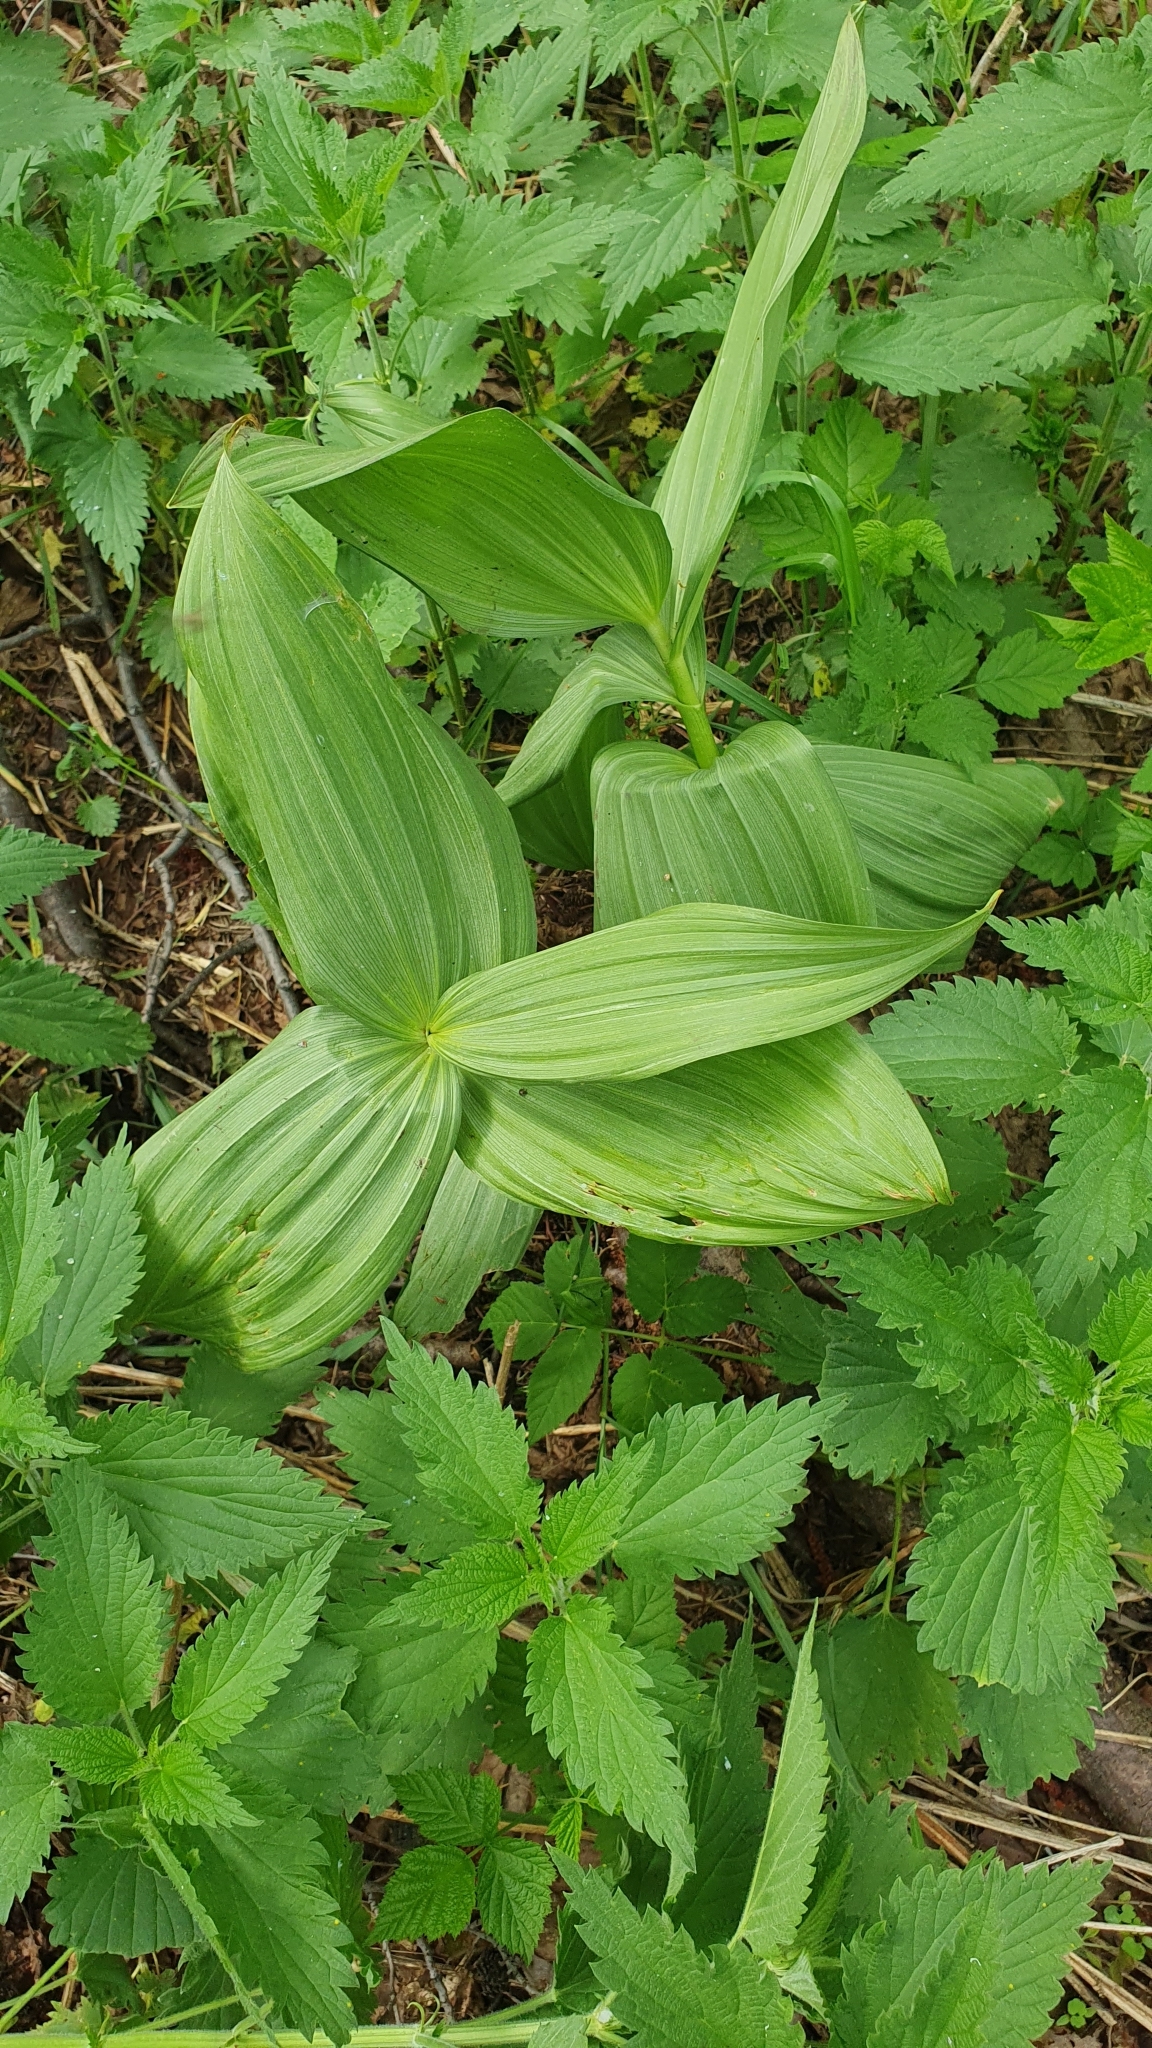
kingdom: Plantae
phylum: Tracheophyta
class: Liliopsida
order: Liliales
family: Melanthiaceae
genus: Veratrum
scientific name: Veratrum lobelianum
